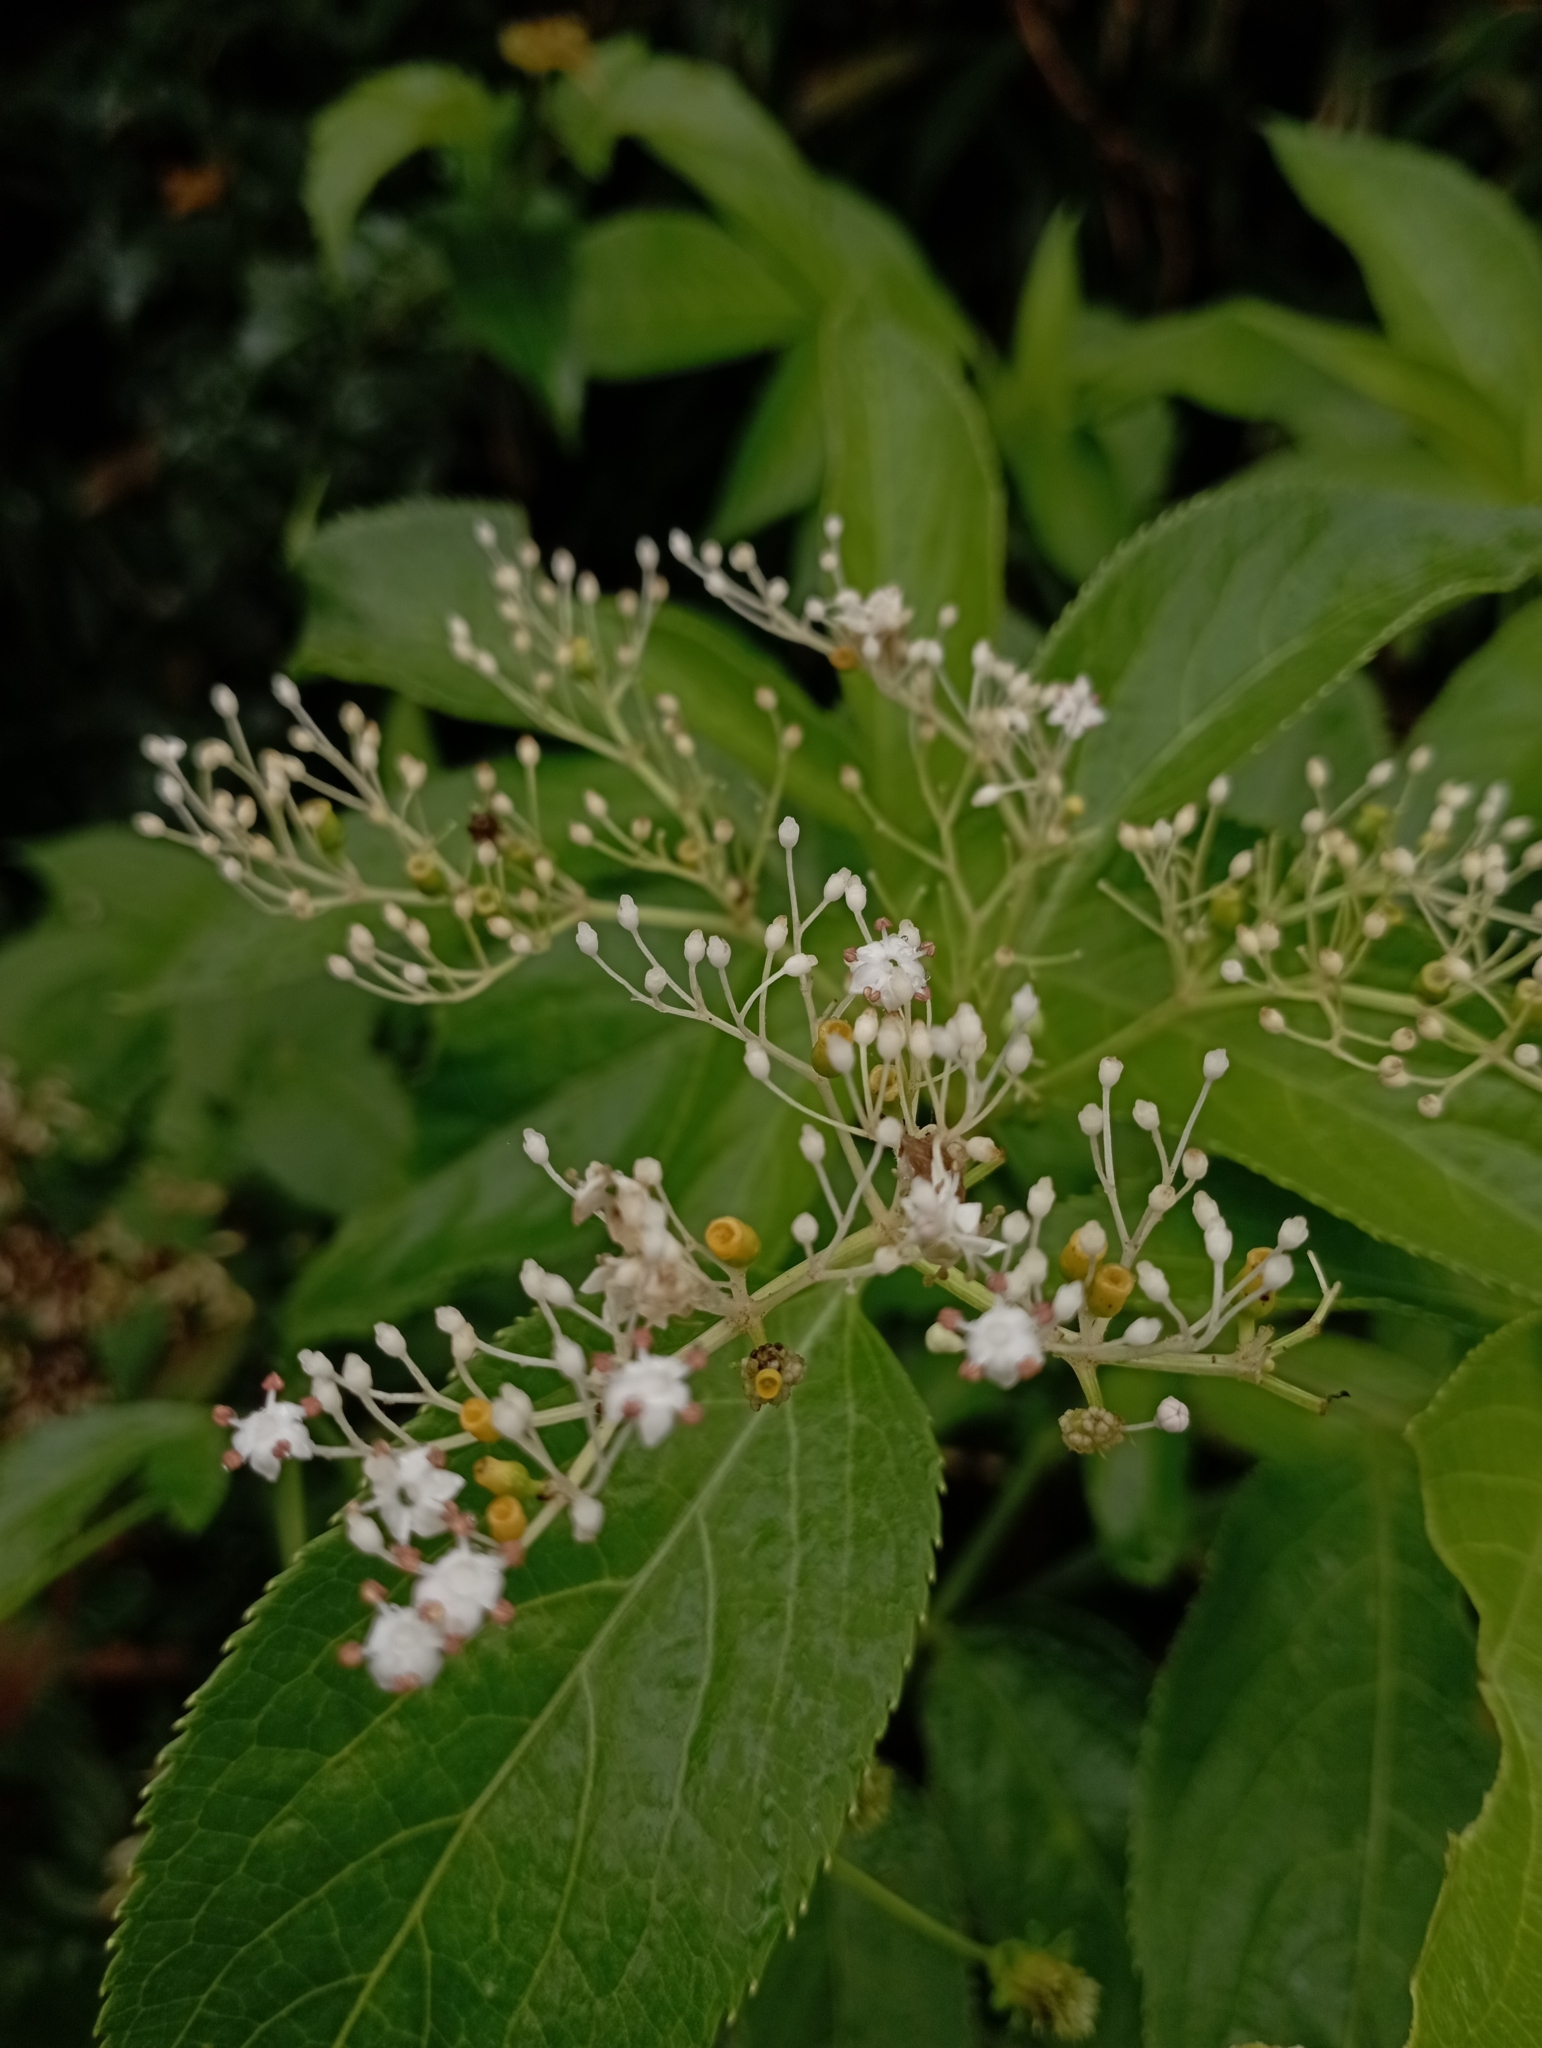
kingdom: Plantae
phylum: Tracheophyta
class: Magnoliopsida
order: Dipsacales
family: Viburnaceae
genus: Sambucus
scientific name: Sambucus javanica
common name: Chinese elder
